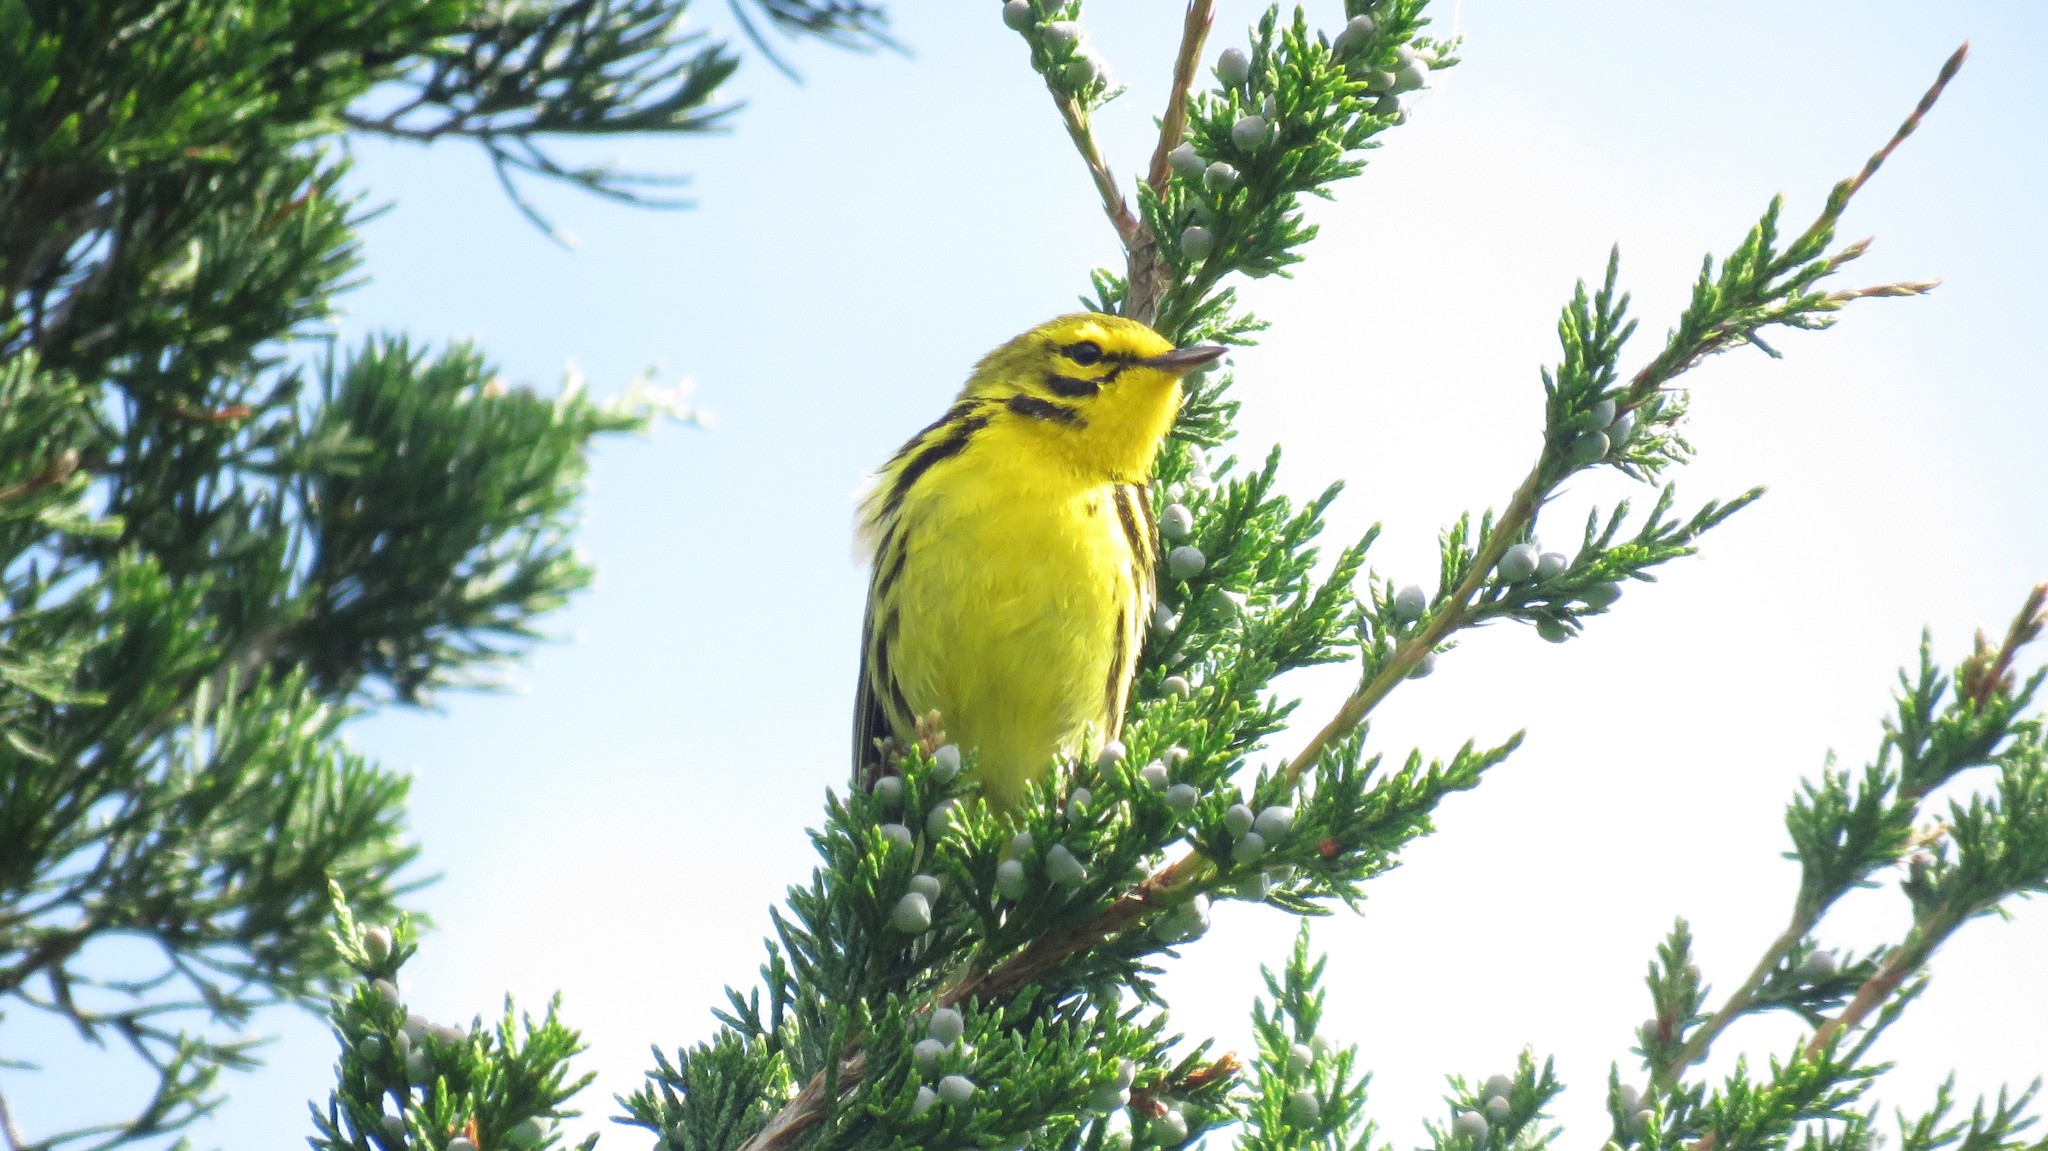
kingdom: Animalia
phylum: Chordata
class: Aves
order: Passeriformes
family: Parulidae
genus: Setophaga
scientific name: Setophaga discolor
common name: Prairie warbler
